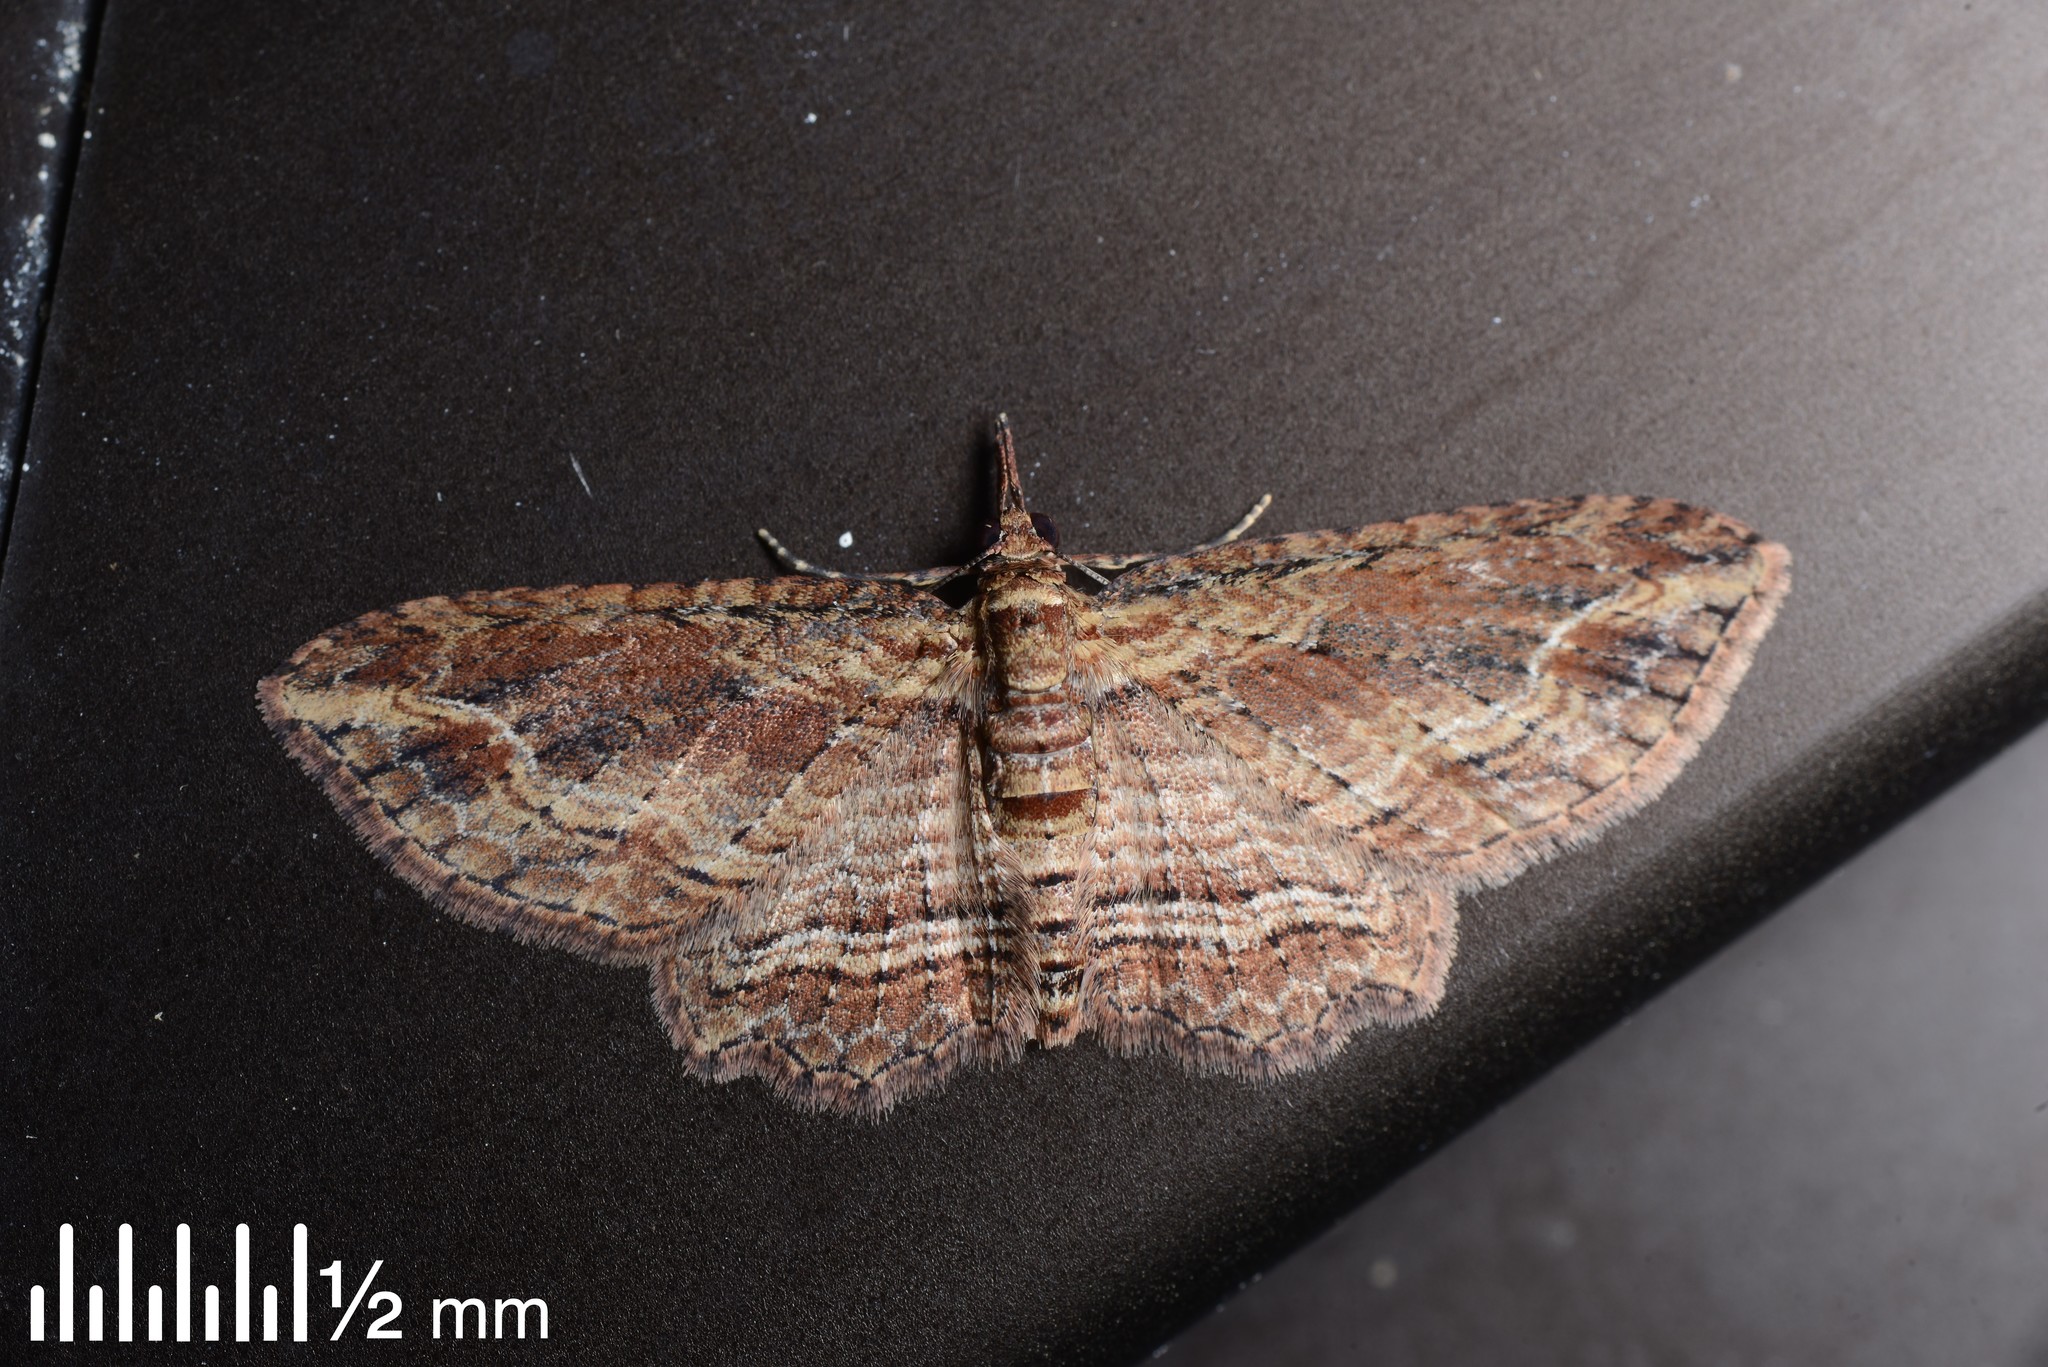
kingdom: Animalia
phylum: Arthropoda
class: Insecta
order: Lepidoptera
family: Geometridae
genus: Chloroclystis
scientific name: Chloroclystis filata
